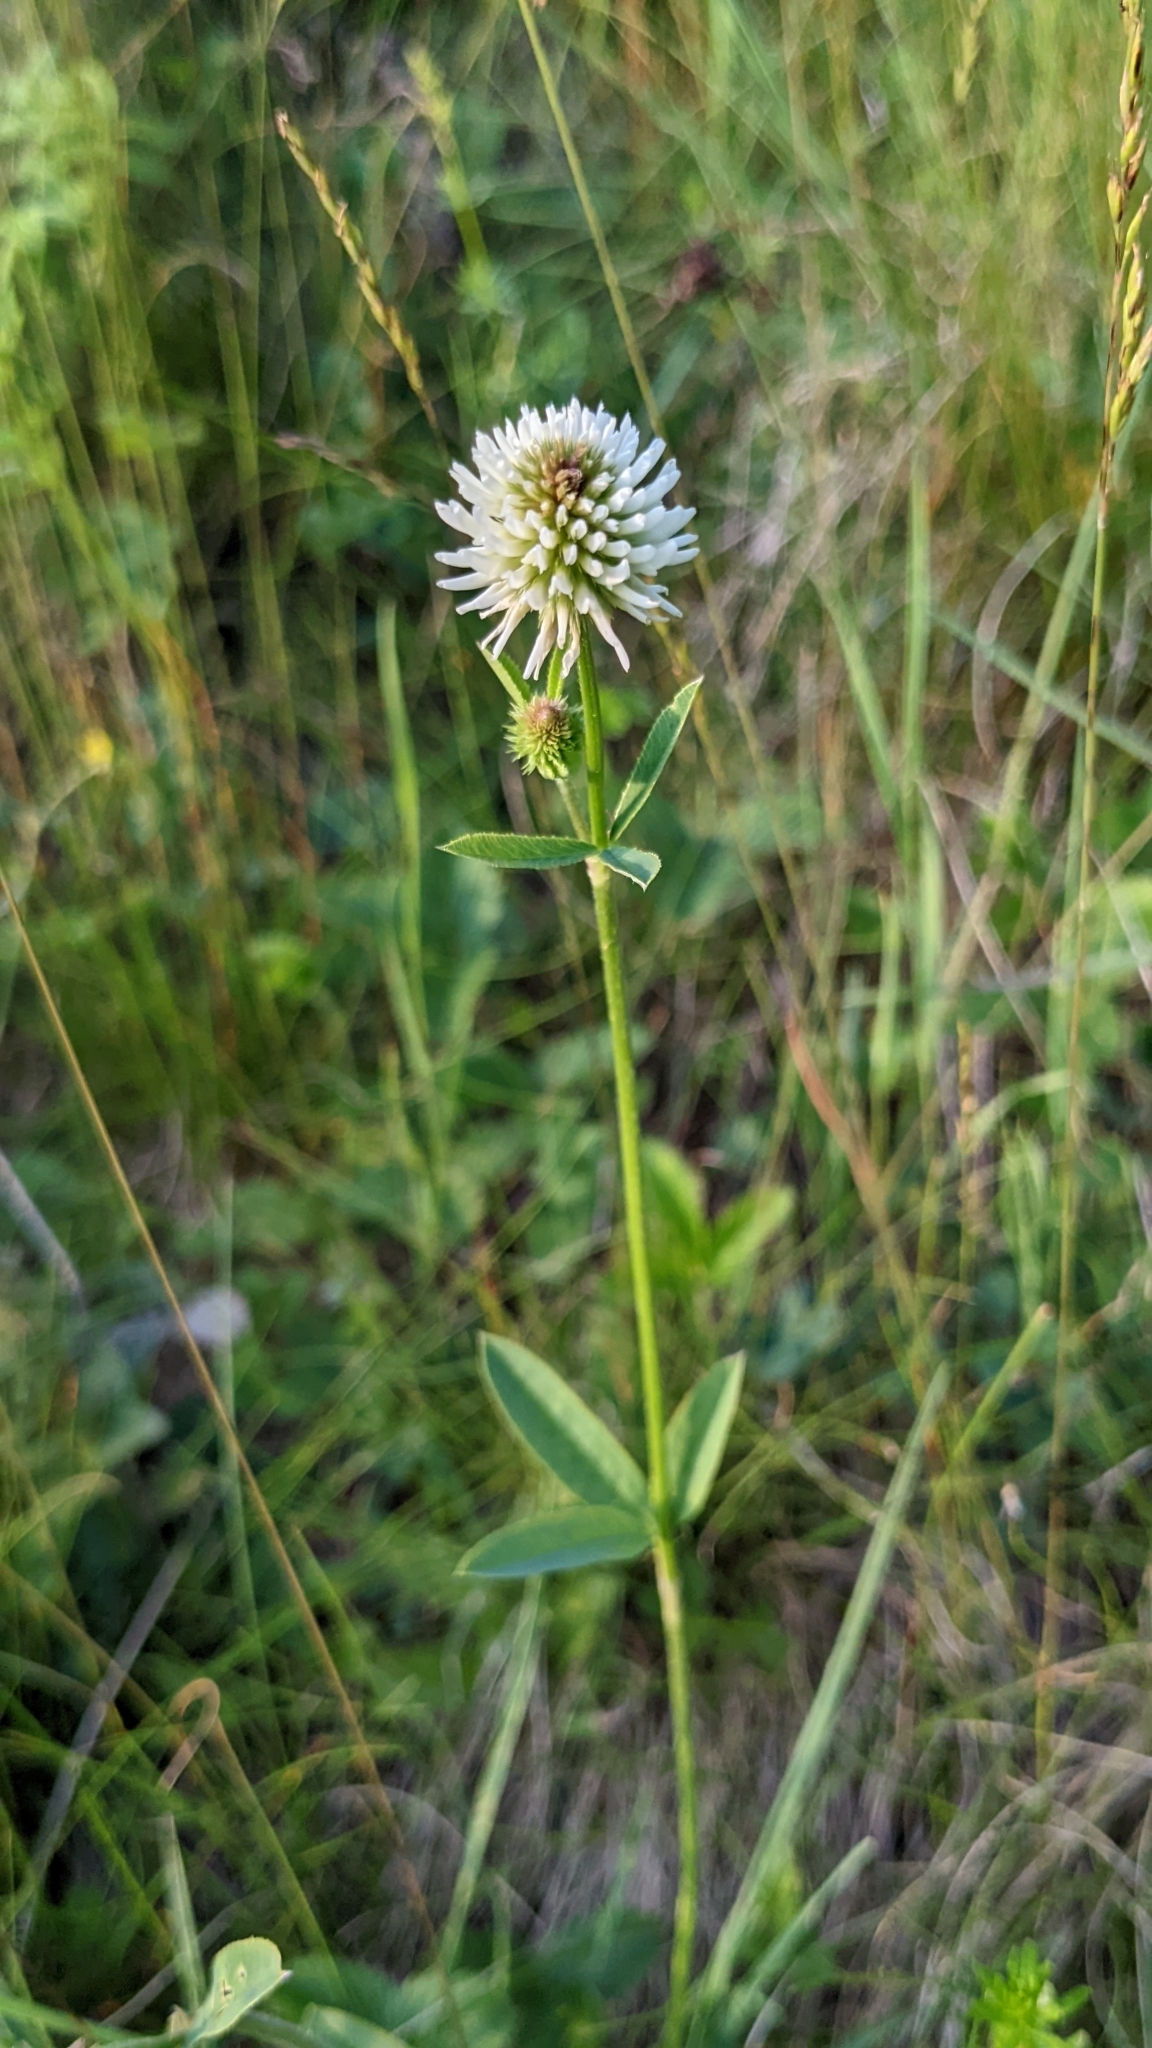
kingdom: Plantae
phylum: Tracheophyta
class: Magnoliopsida
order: Fabales
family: Fabaceae
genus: Trifolium
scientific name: Trifolium montanum
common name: Mountain clover
